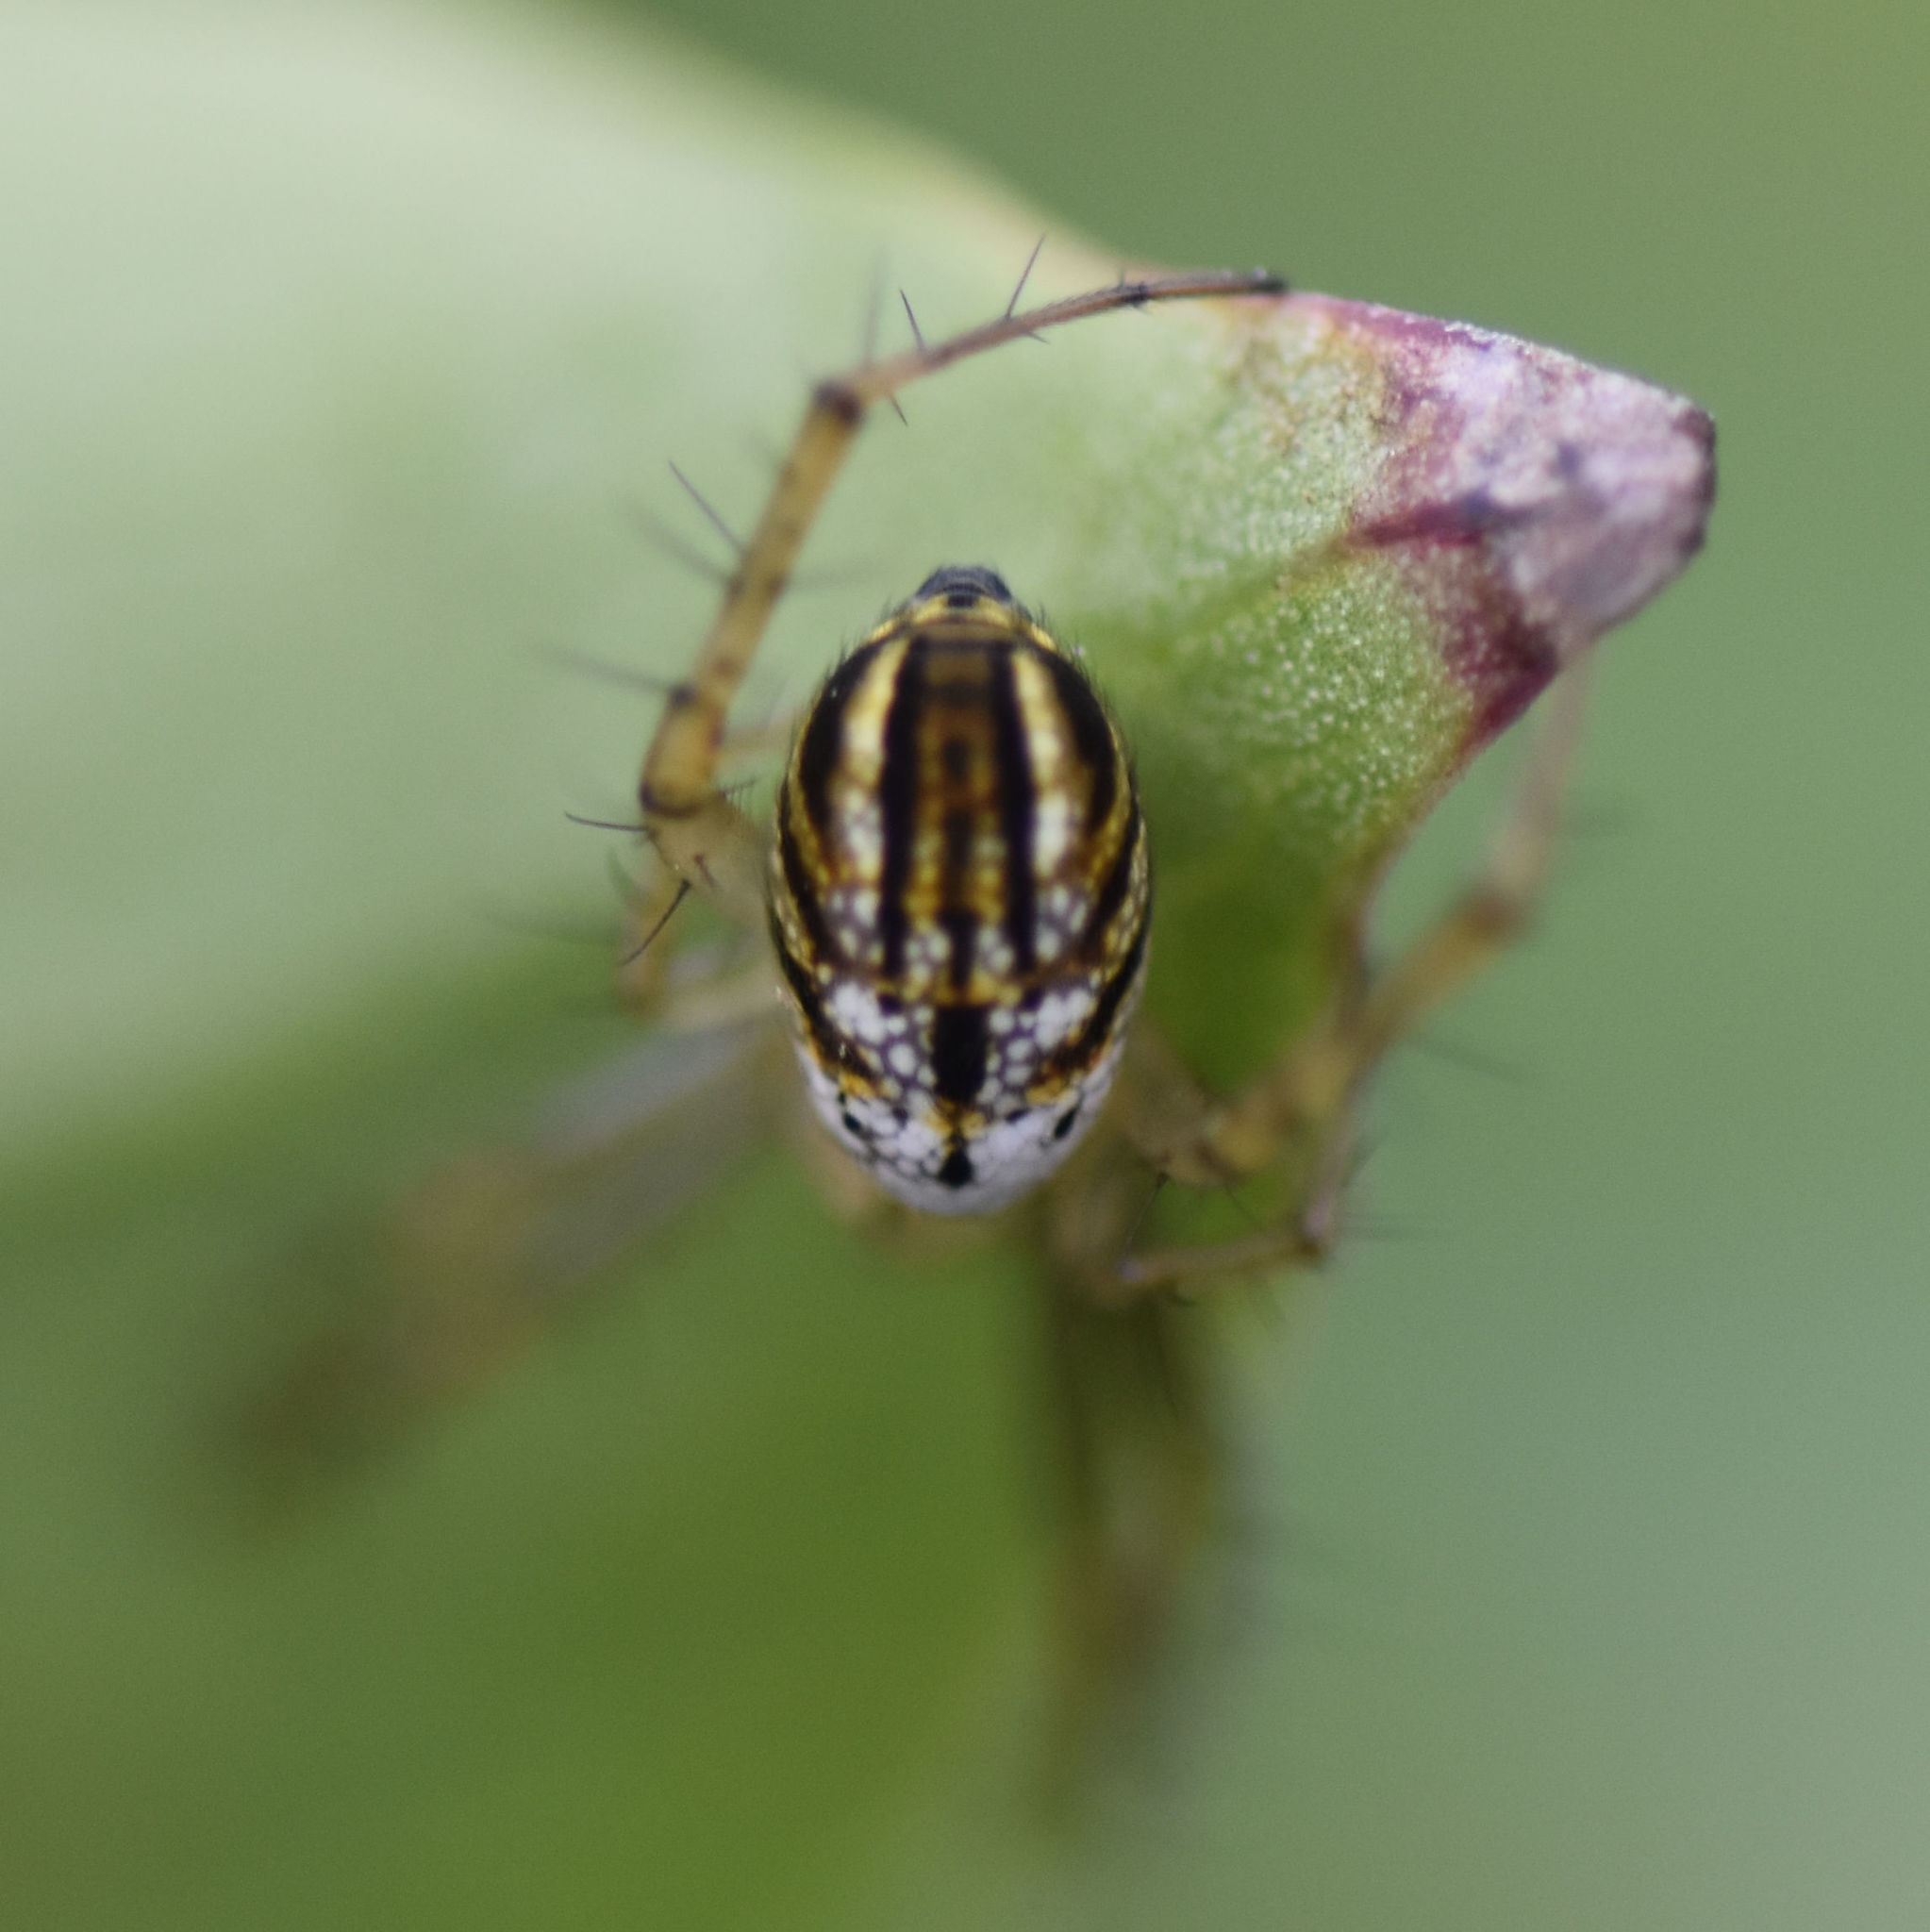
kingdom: Animalia
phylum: Arthropoda
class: Arachnida
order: Araneae
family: Araneidae
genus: Mangora
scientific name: Mangora gibberosa
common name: Lined orbweaver
